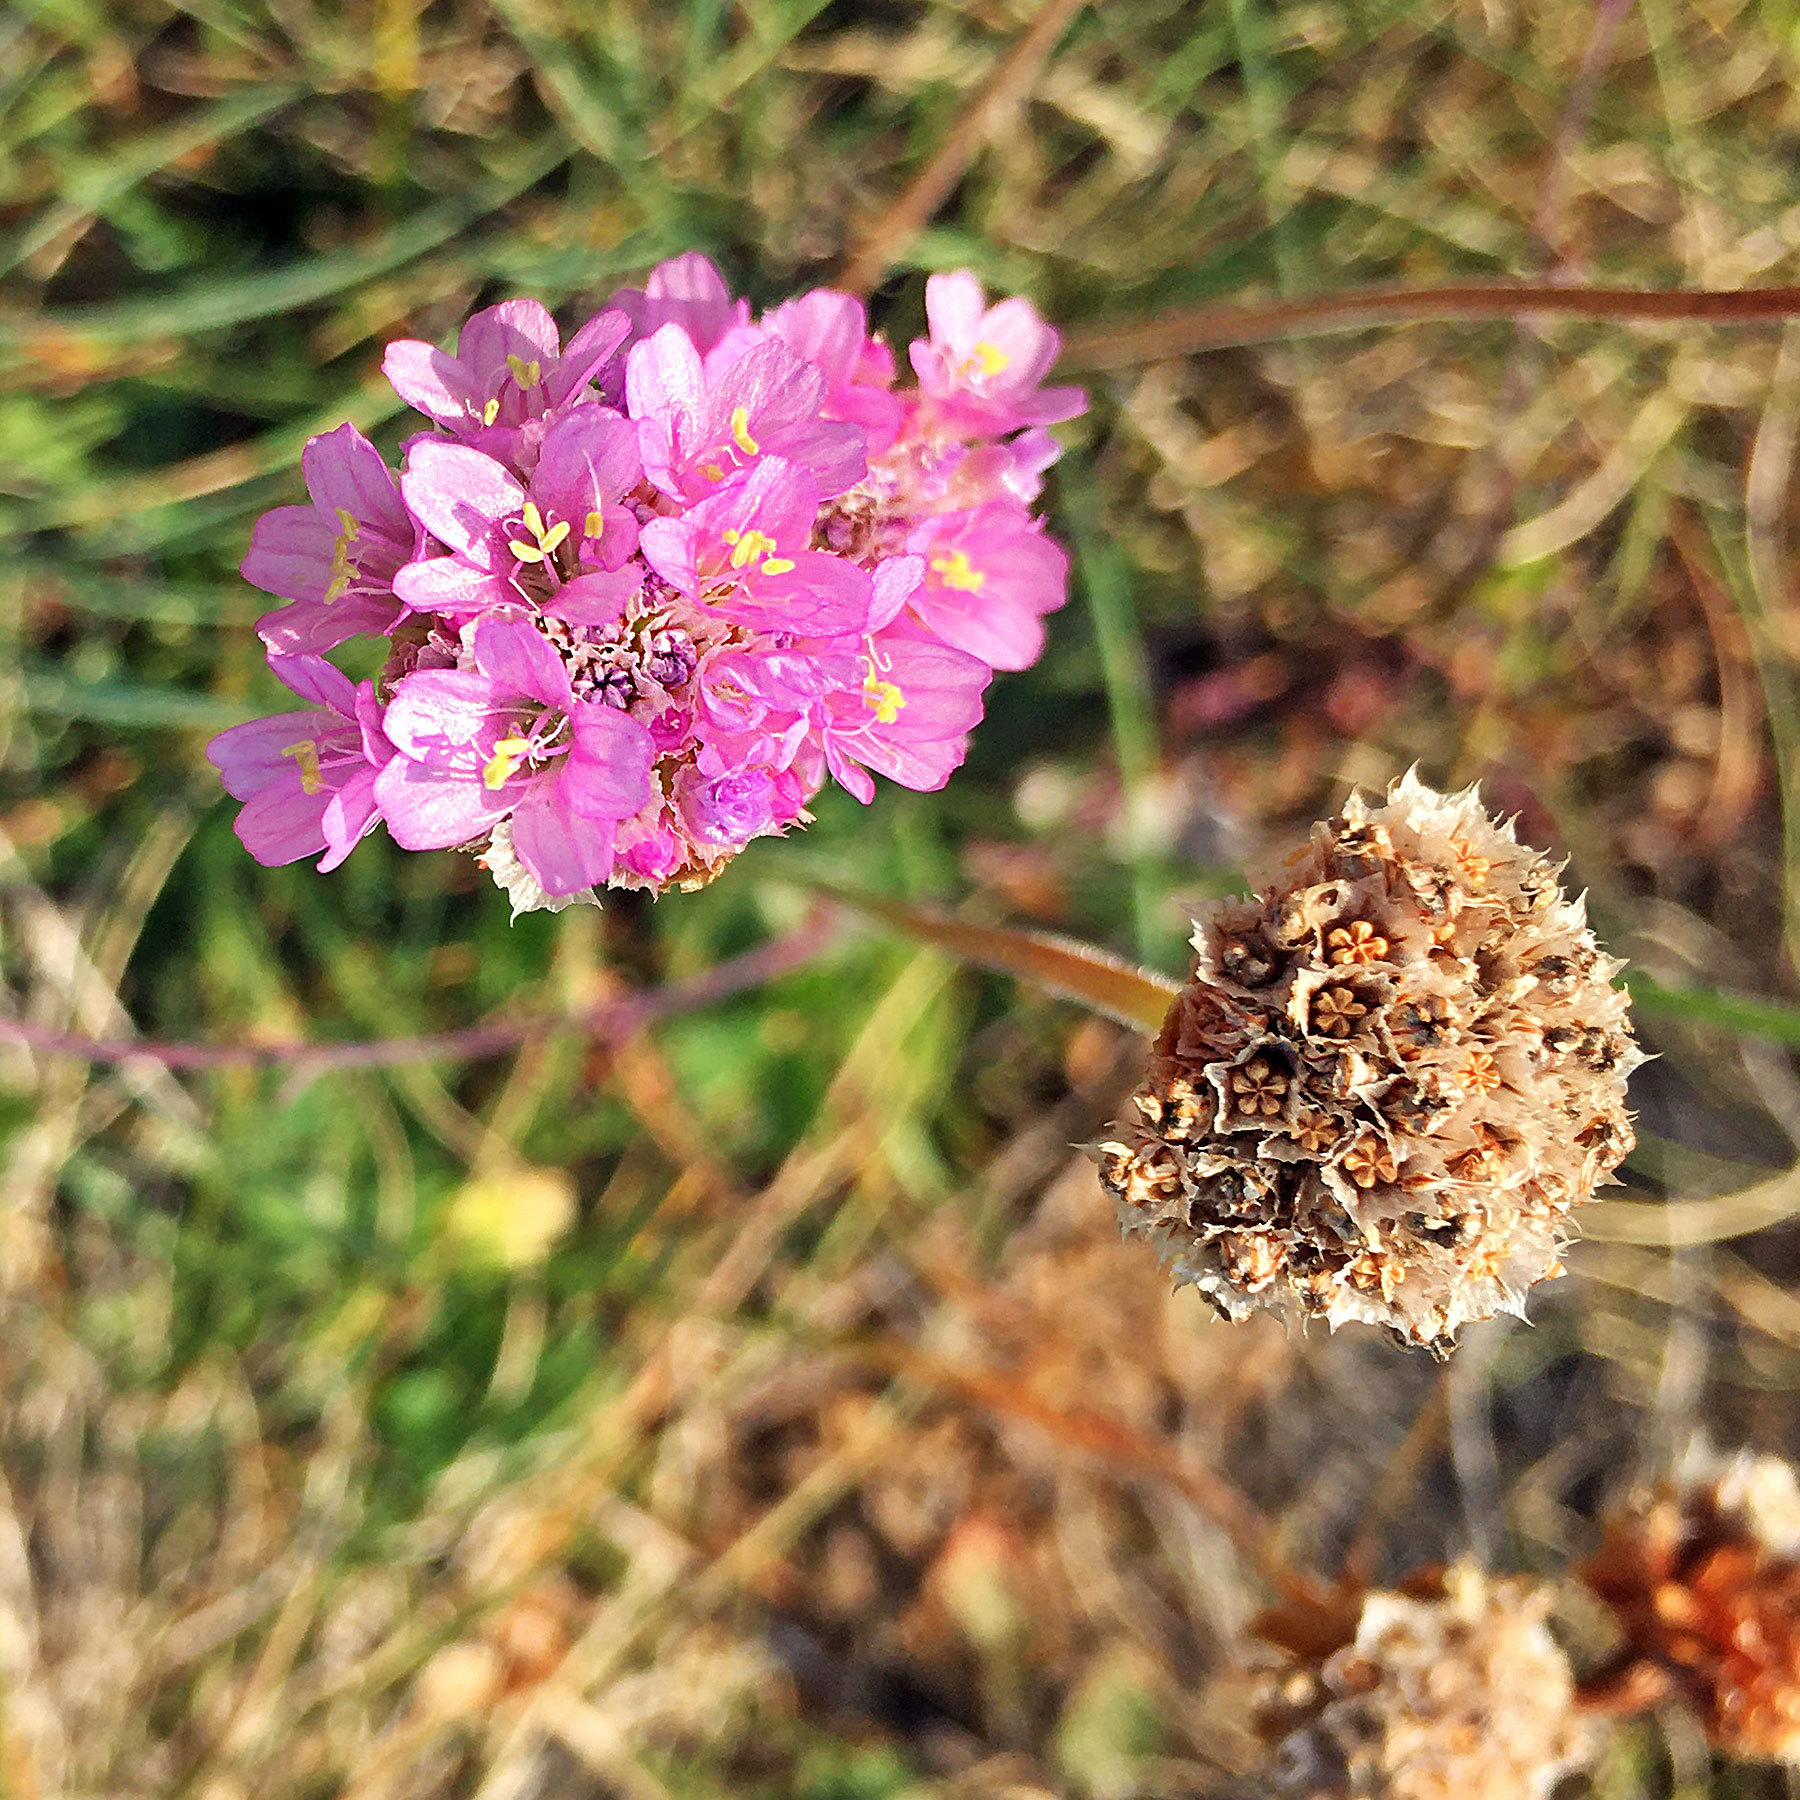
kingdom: Plantae
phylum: Tracheophyta
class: Magnoliopsida
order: Caryophyllales
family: Plumbaginaceae
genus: Armeria
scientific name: Armeria maritima
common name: Thrift
